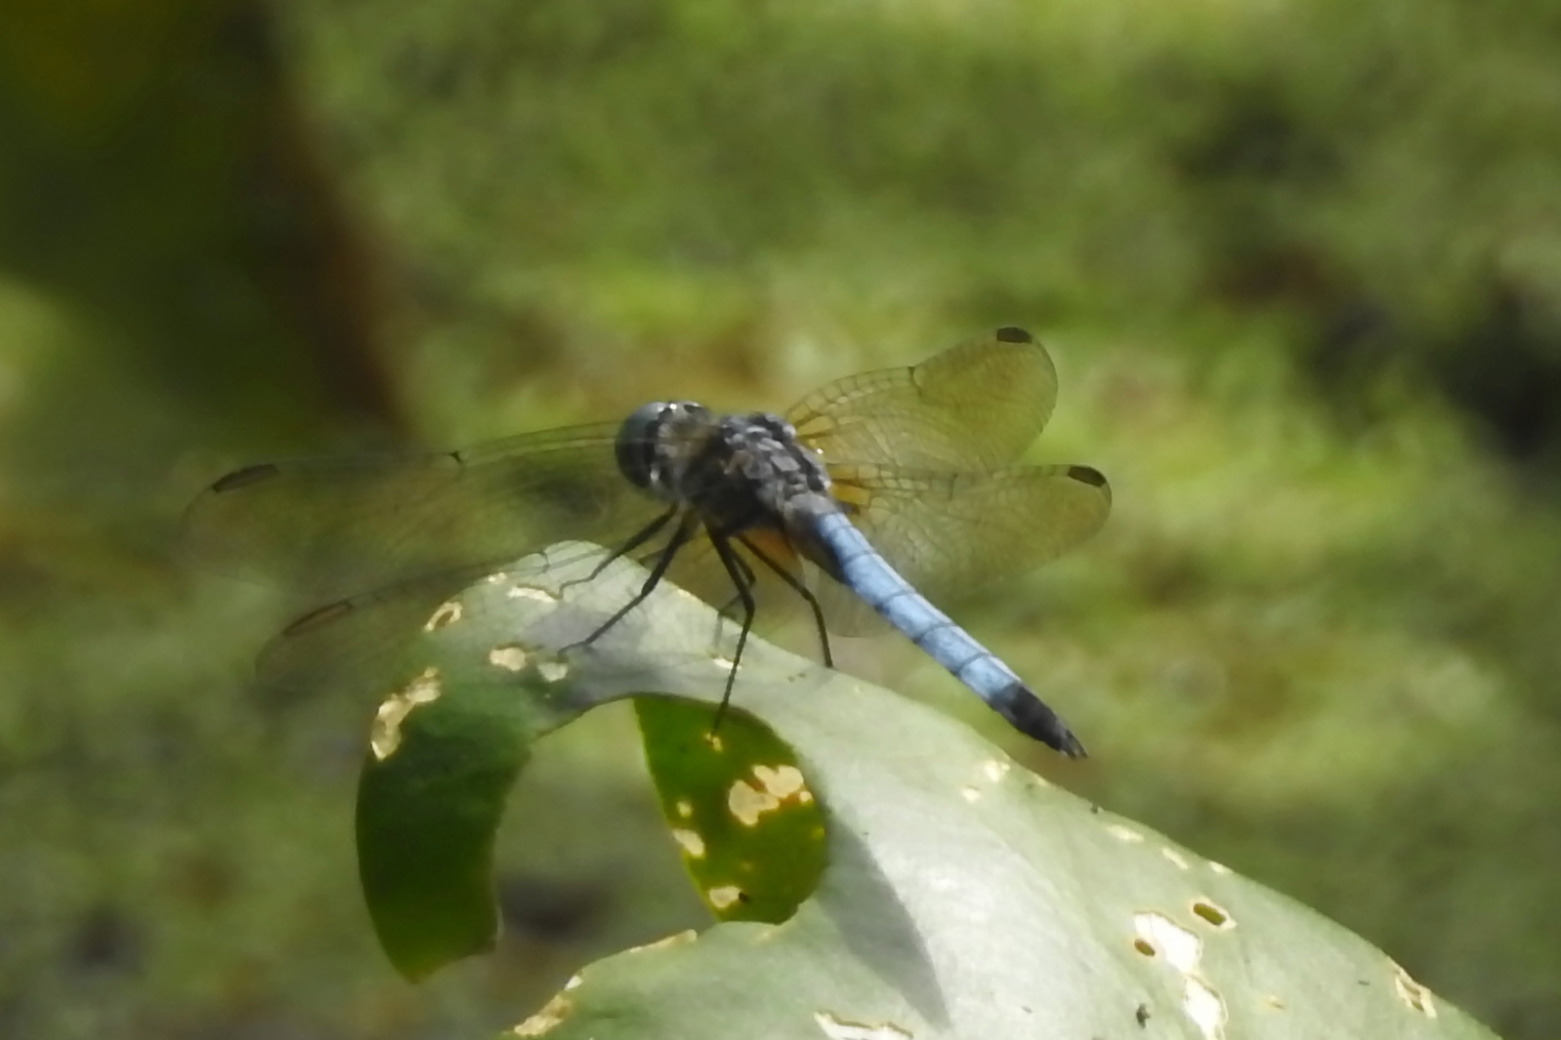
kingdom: Animalia
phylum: Arthropoda
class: Insecta
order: Odonata
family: Libellulidae
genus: Pachydiplax
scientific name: Pachydiplax longipennis
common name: Blue dasher
